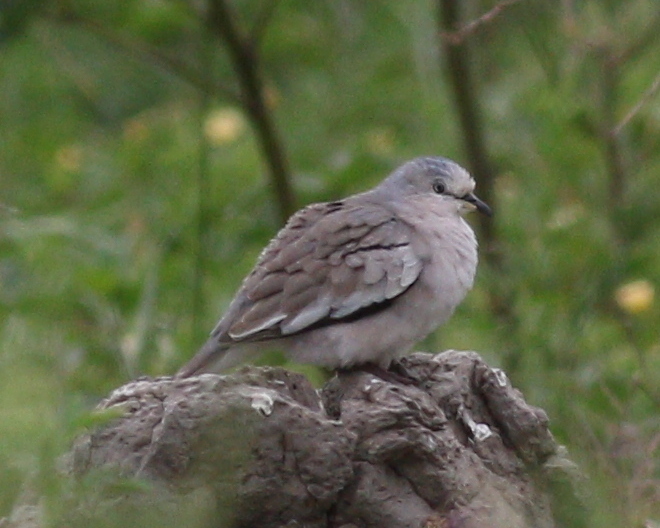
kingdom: Animalia
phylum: Chordata
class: Aves
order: Columbiformes
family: Columbidae
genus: Columbina
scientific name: Columbina picui
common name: Picui ground dove
